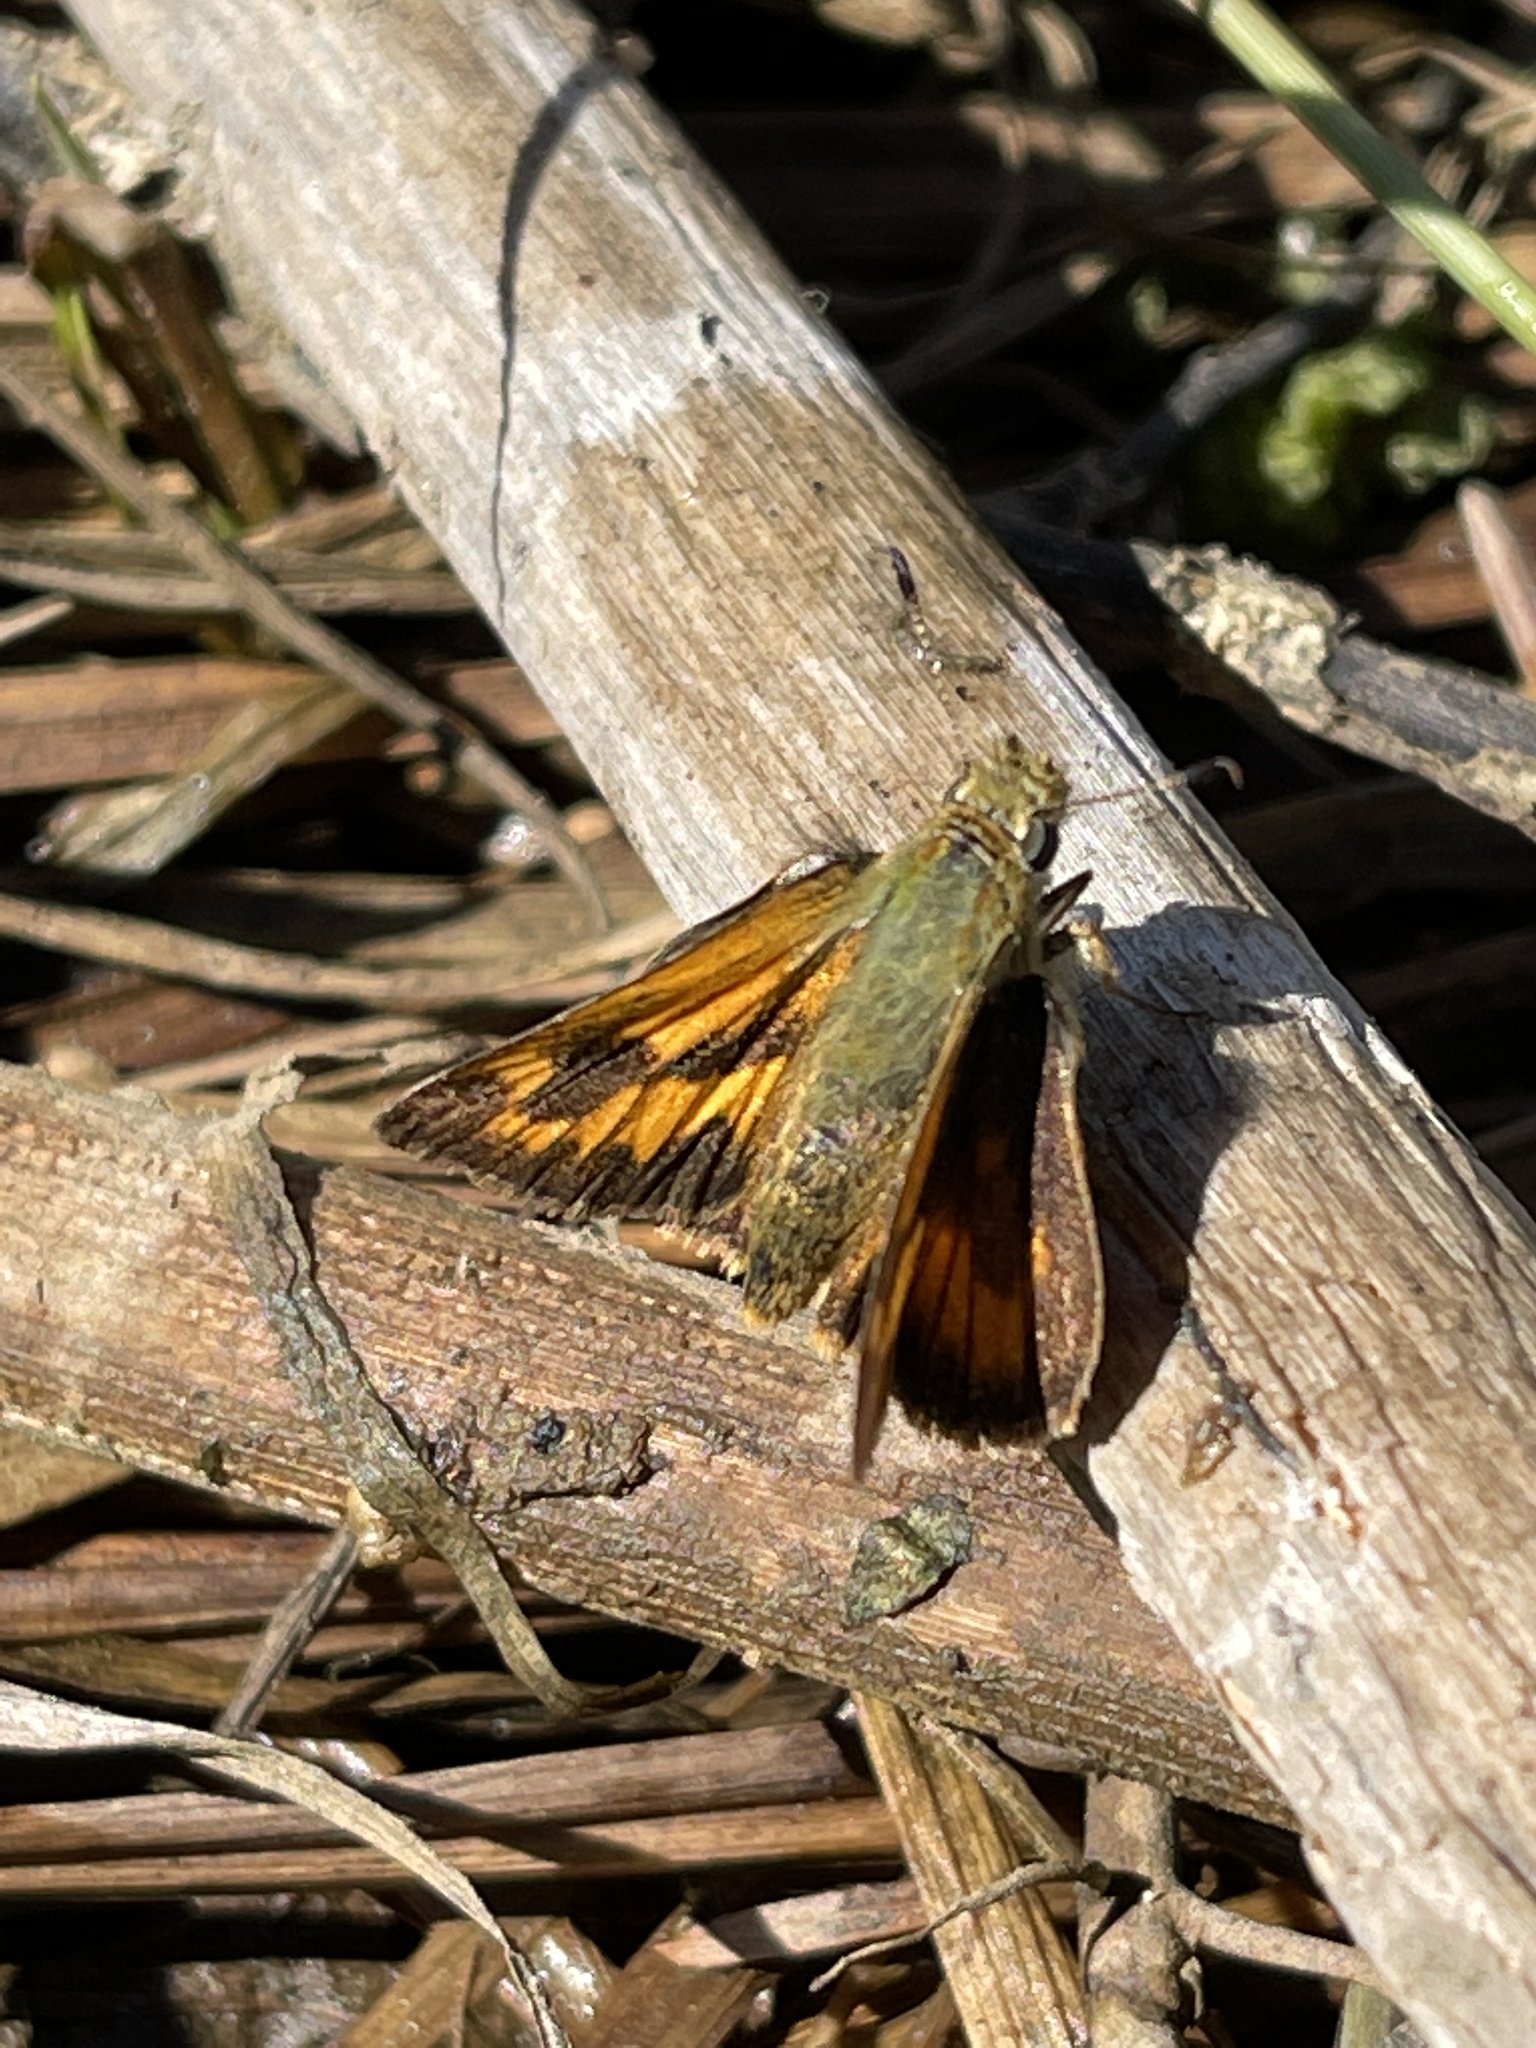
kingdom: Animalia
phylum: Arthropoda
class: Insecta
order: Lepidoptera
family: Hesperiidae
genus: Ochlodes
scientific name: Ochlodes sylvanoides
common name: Woodland skipper
